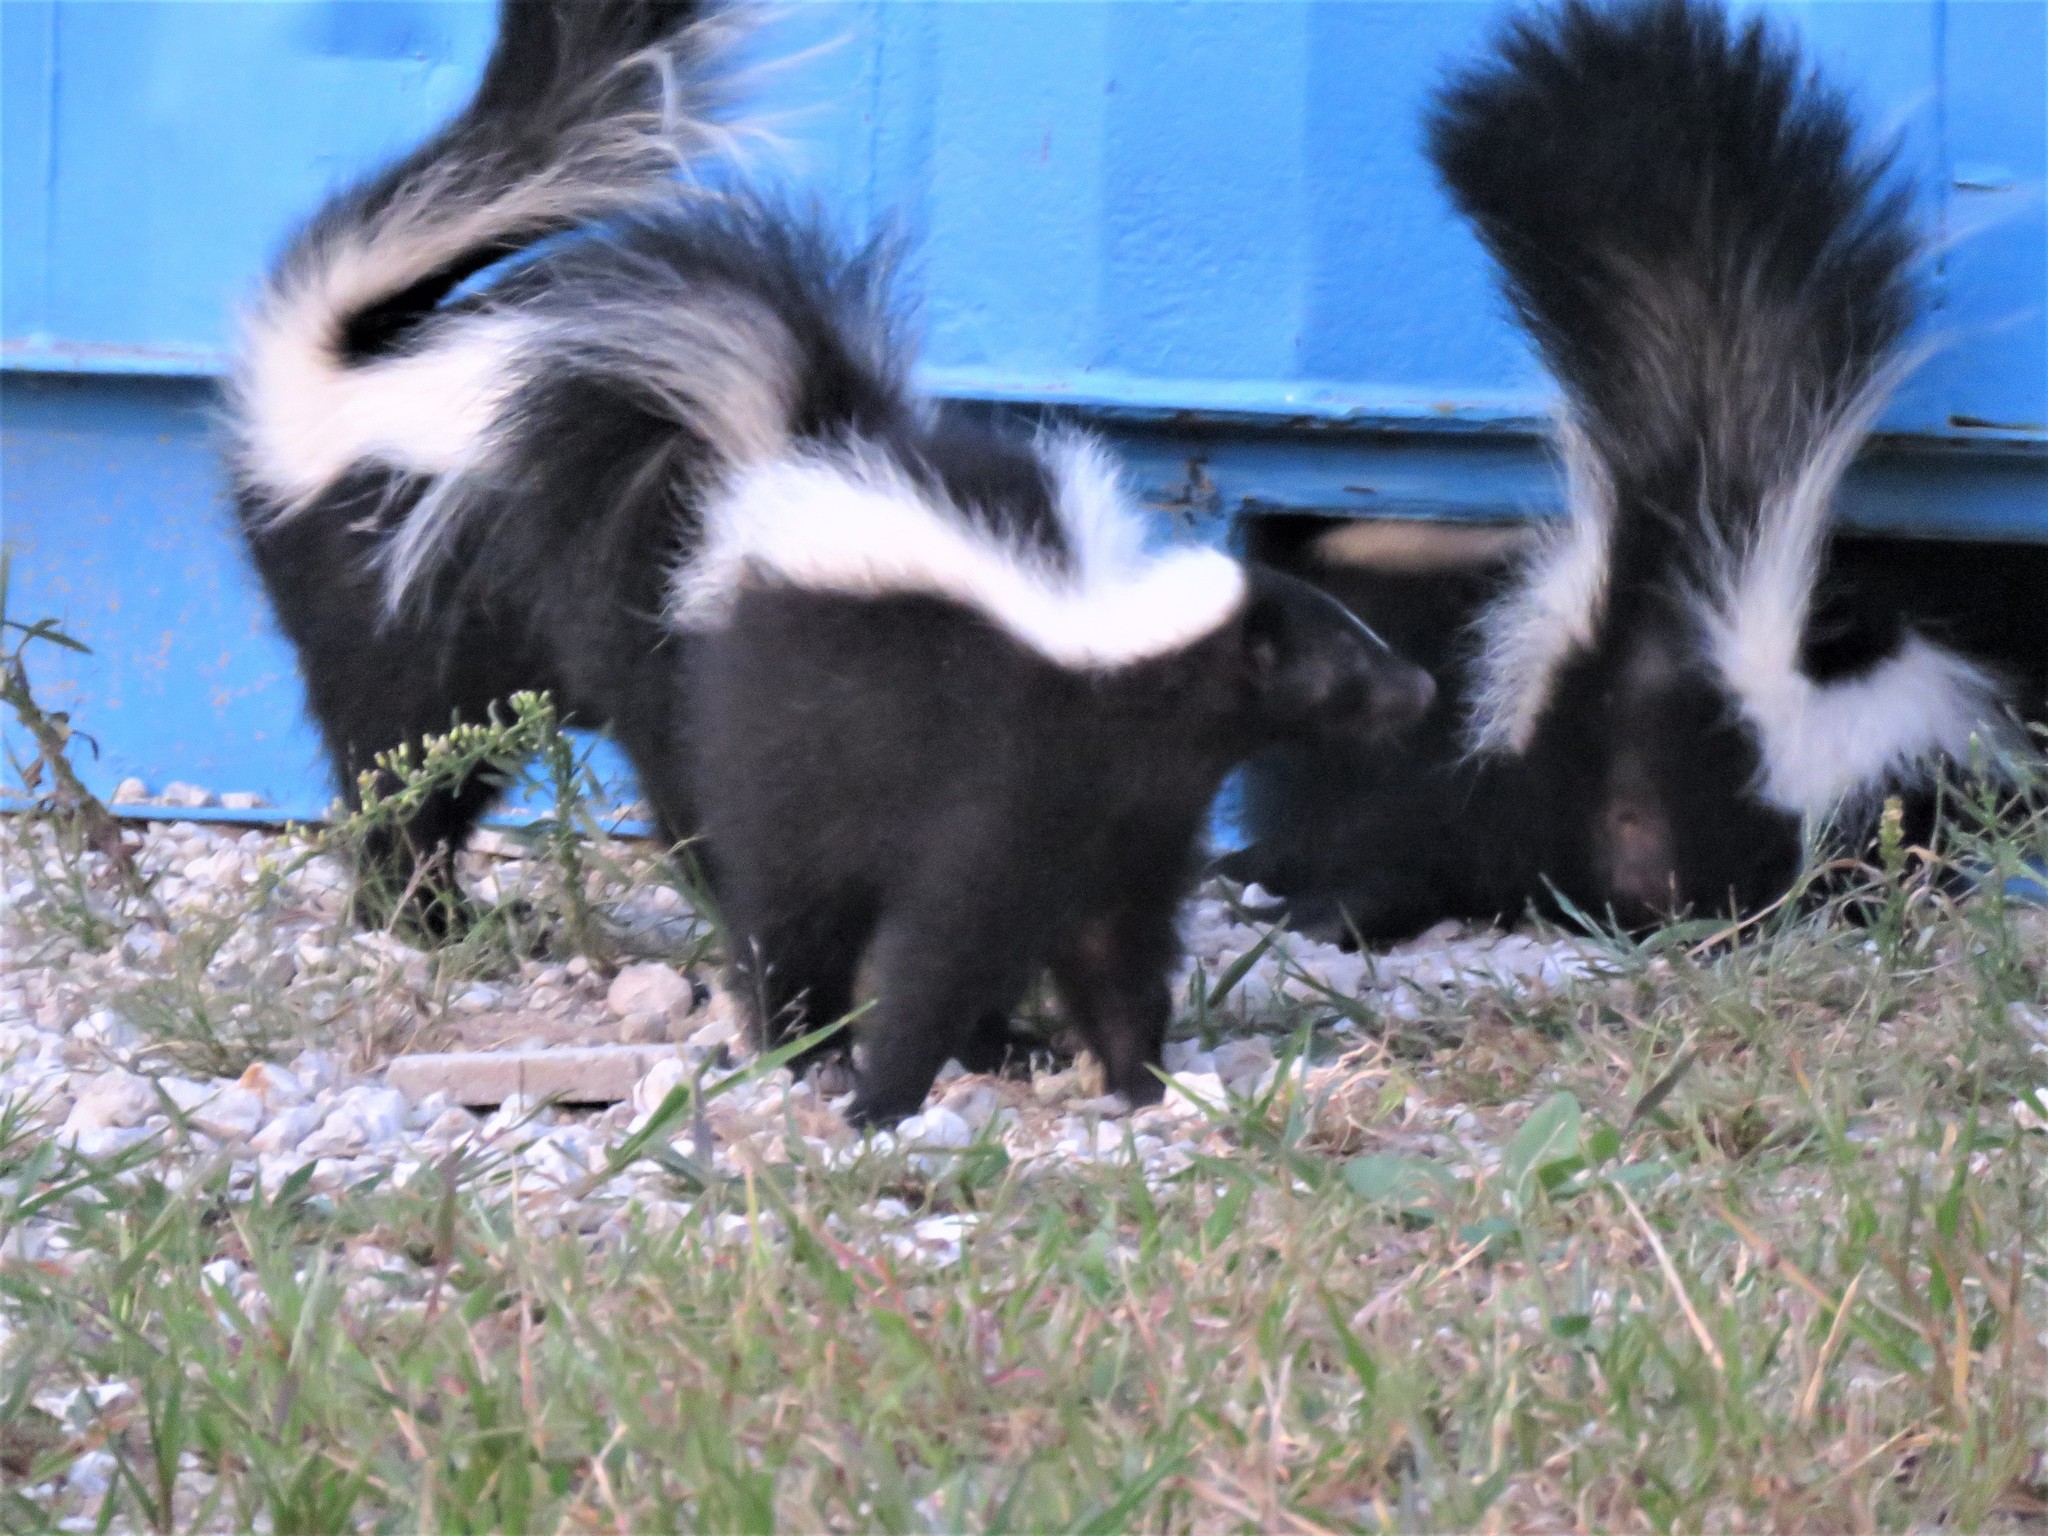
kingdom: Animalia
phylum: Chordata
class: Mammalia
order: Carnivora
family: Mephitidae
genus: Mephitis
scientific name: Mephitis mephitis
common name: Striped skunk
